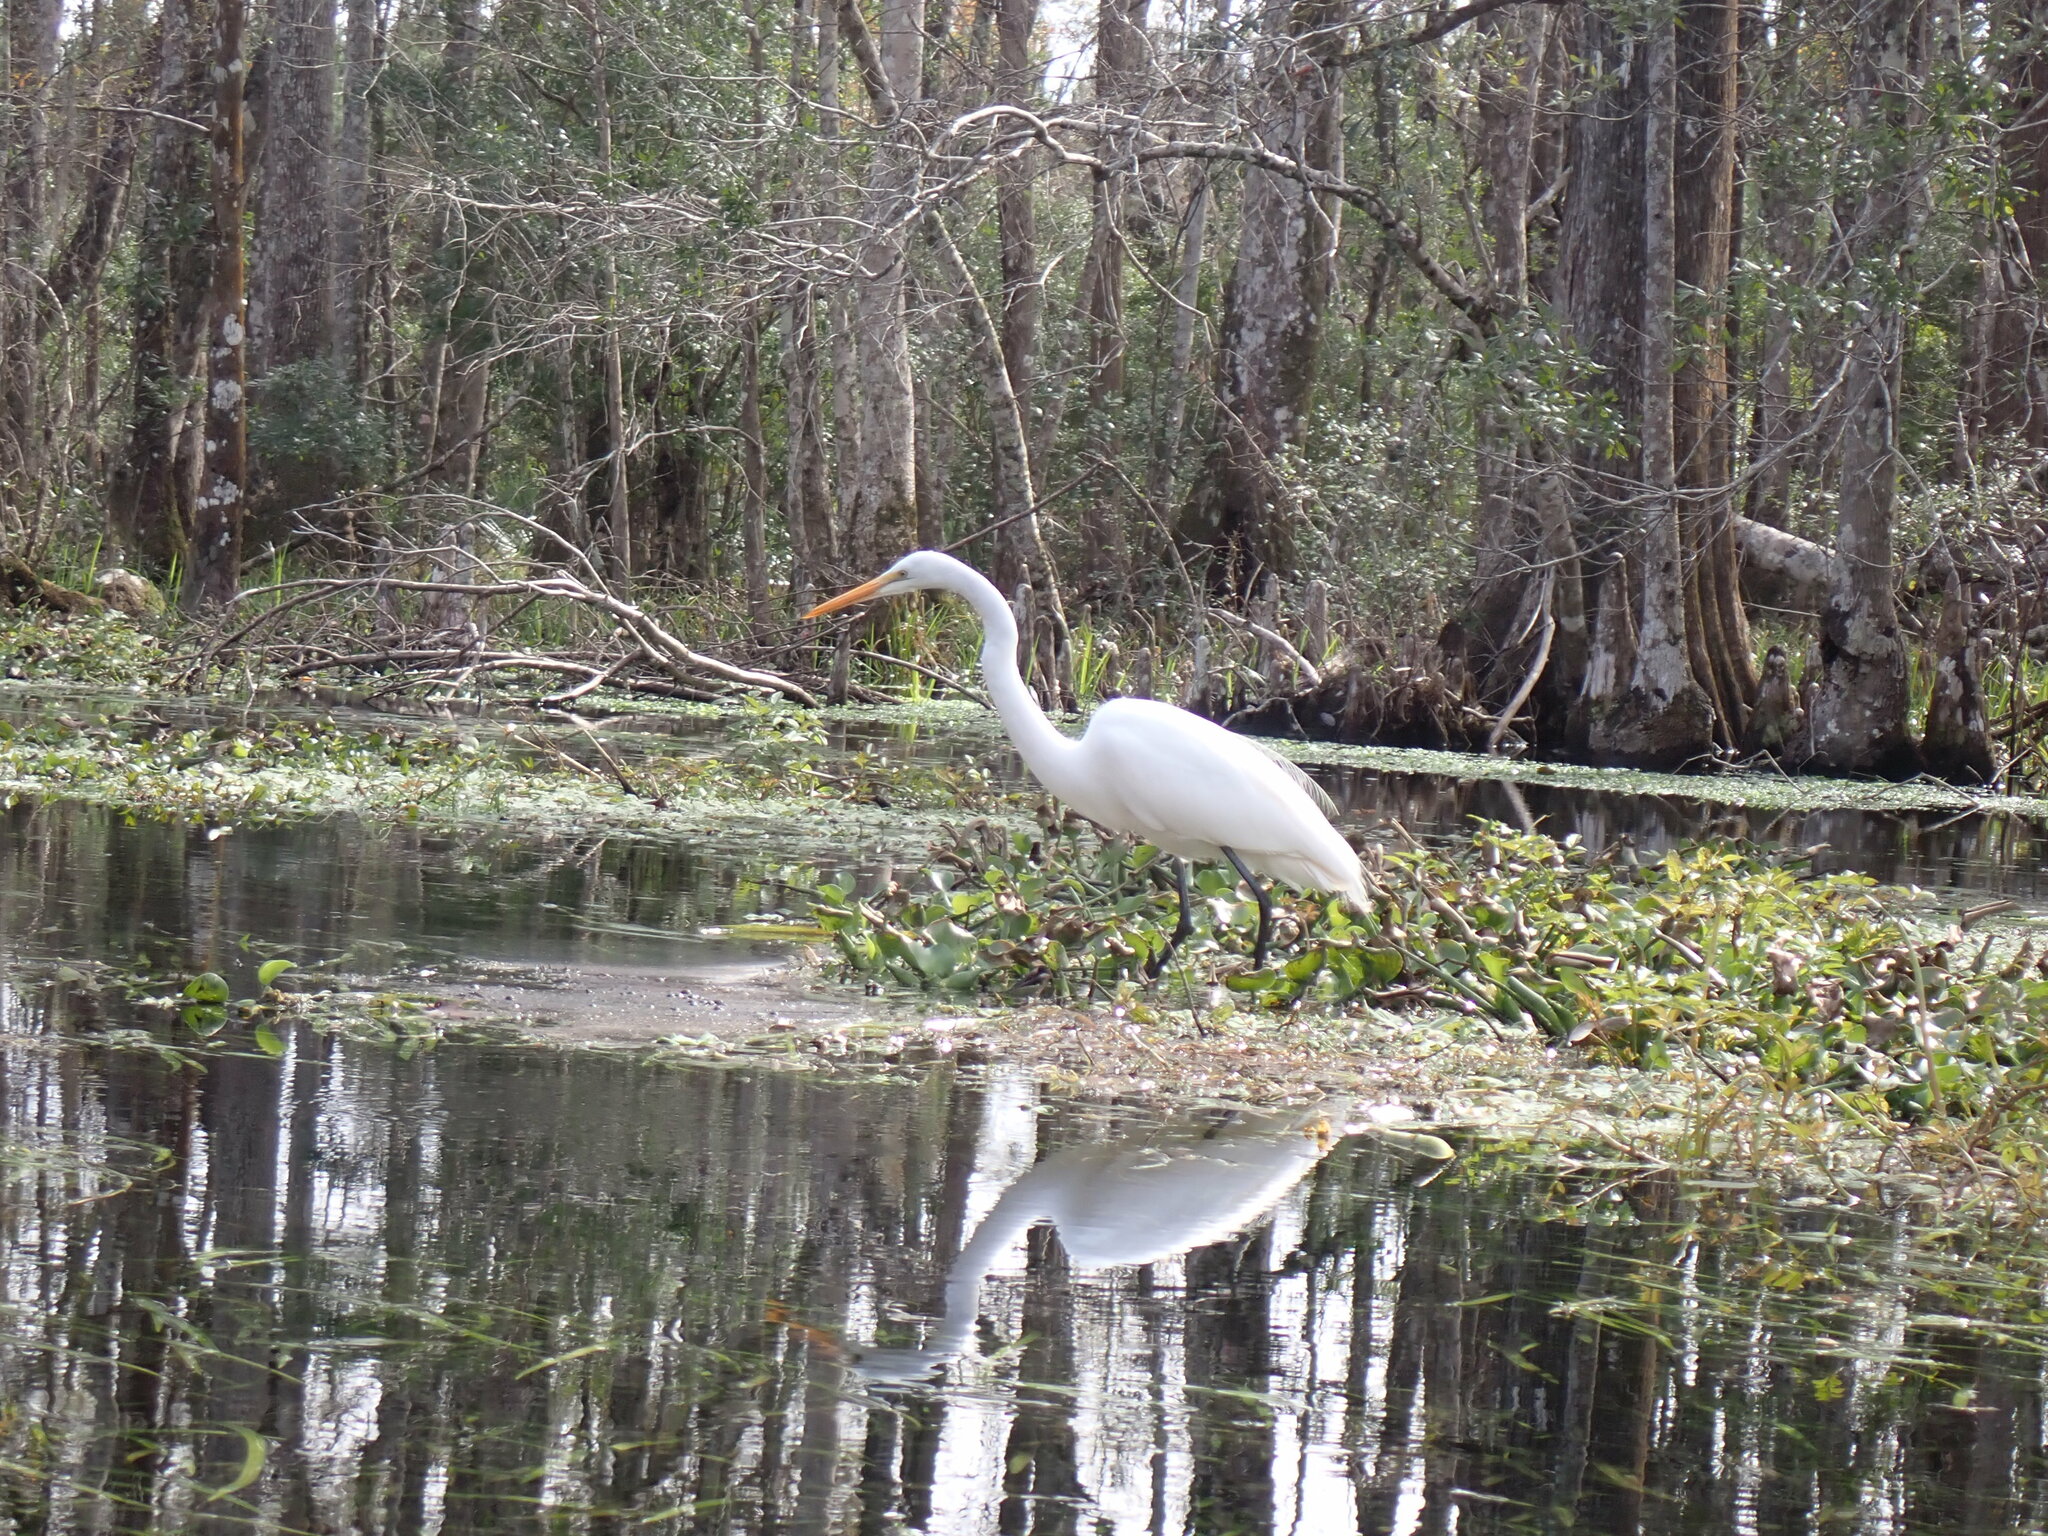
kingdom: Animalia
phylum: Chordata
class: Aves
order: Pelecaniformes
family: Ardeidae
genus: Egretta
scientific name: Egretta caerulea
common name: Little blue heron
